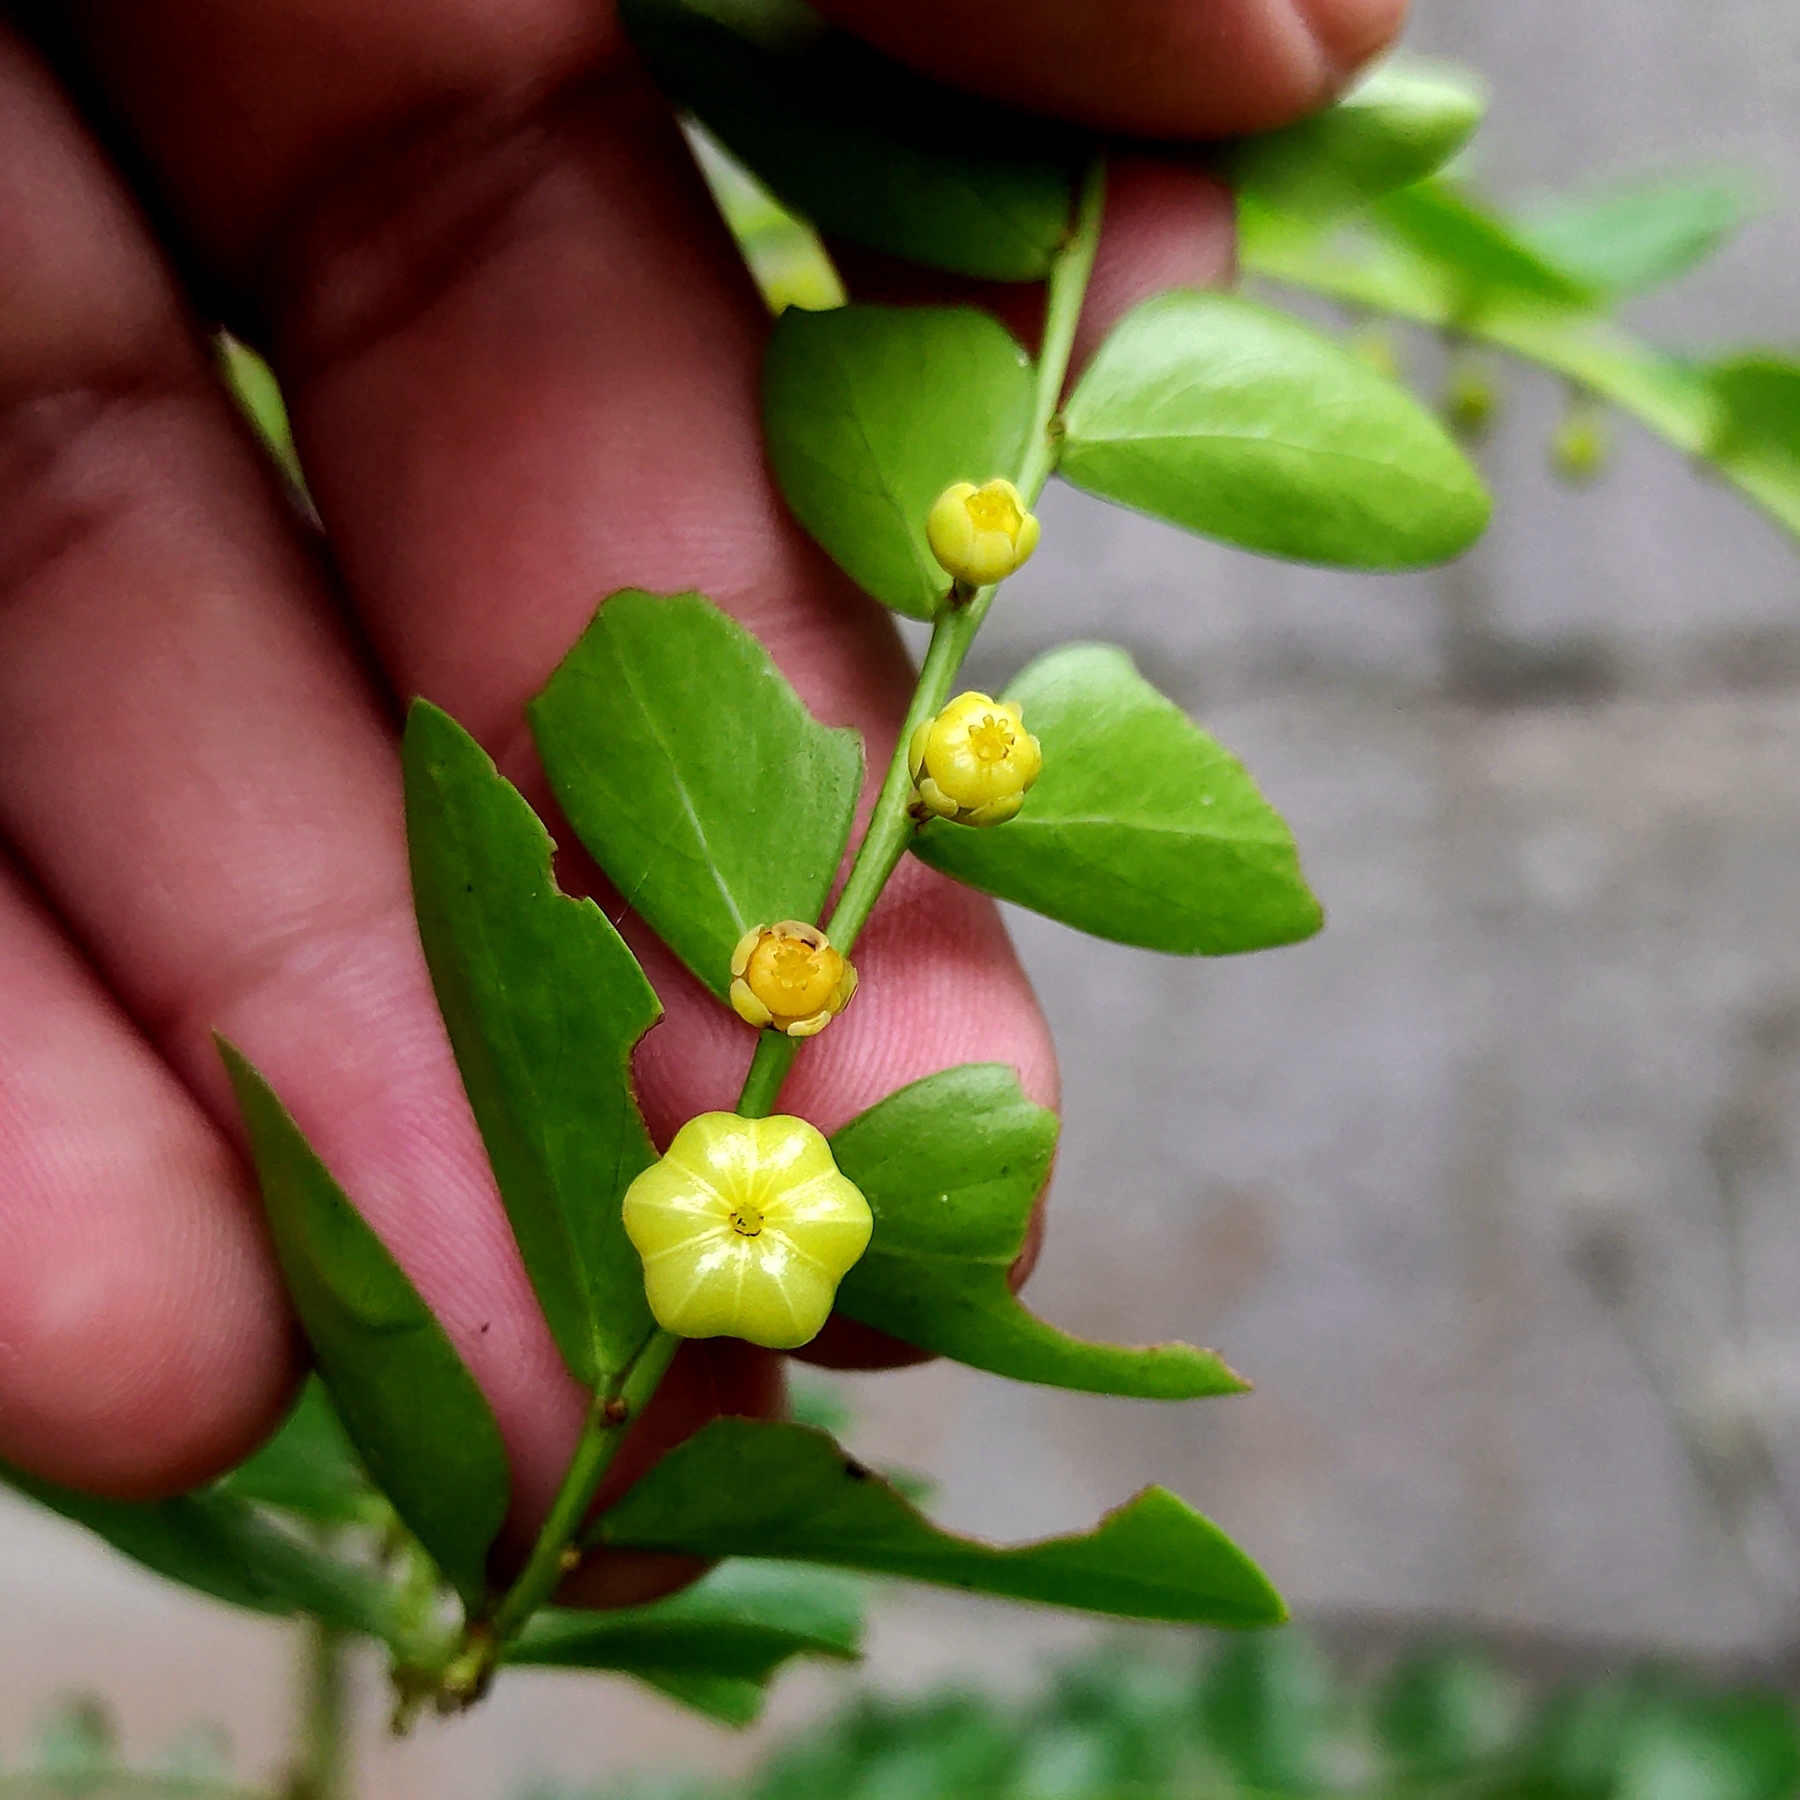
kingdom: Plantae
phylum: Tracheophyta
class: Magnoliopsida
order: Malpighiales
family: Phyllanthaceae
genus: Phyllanthus
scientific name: Phyllanthus buxifolius
